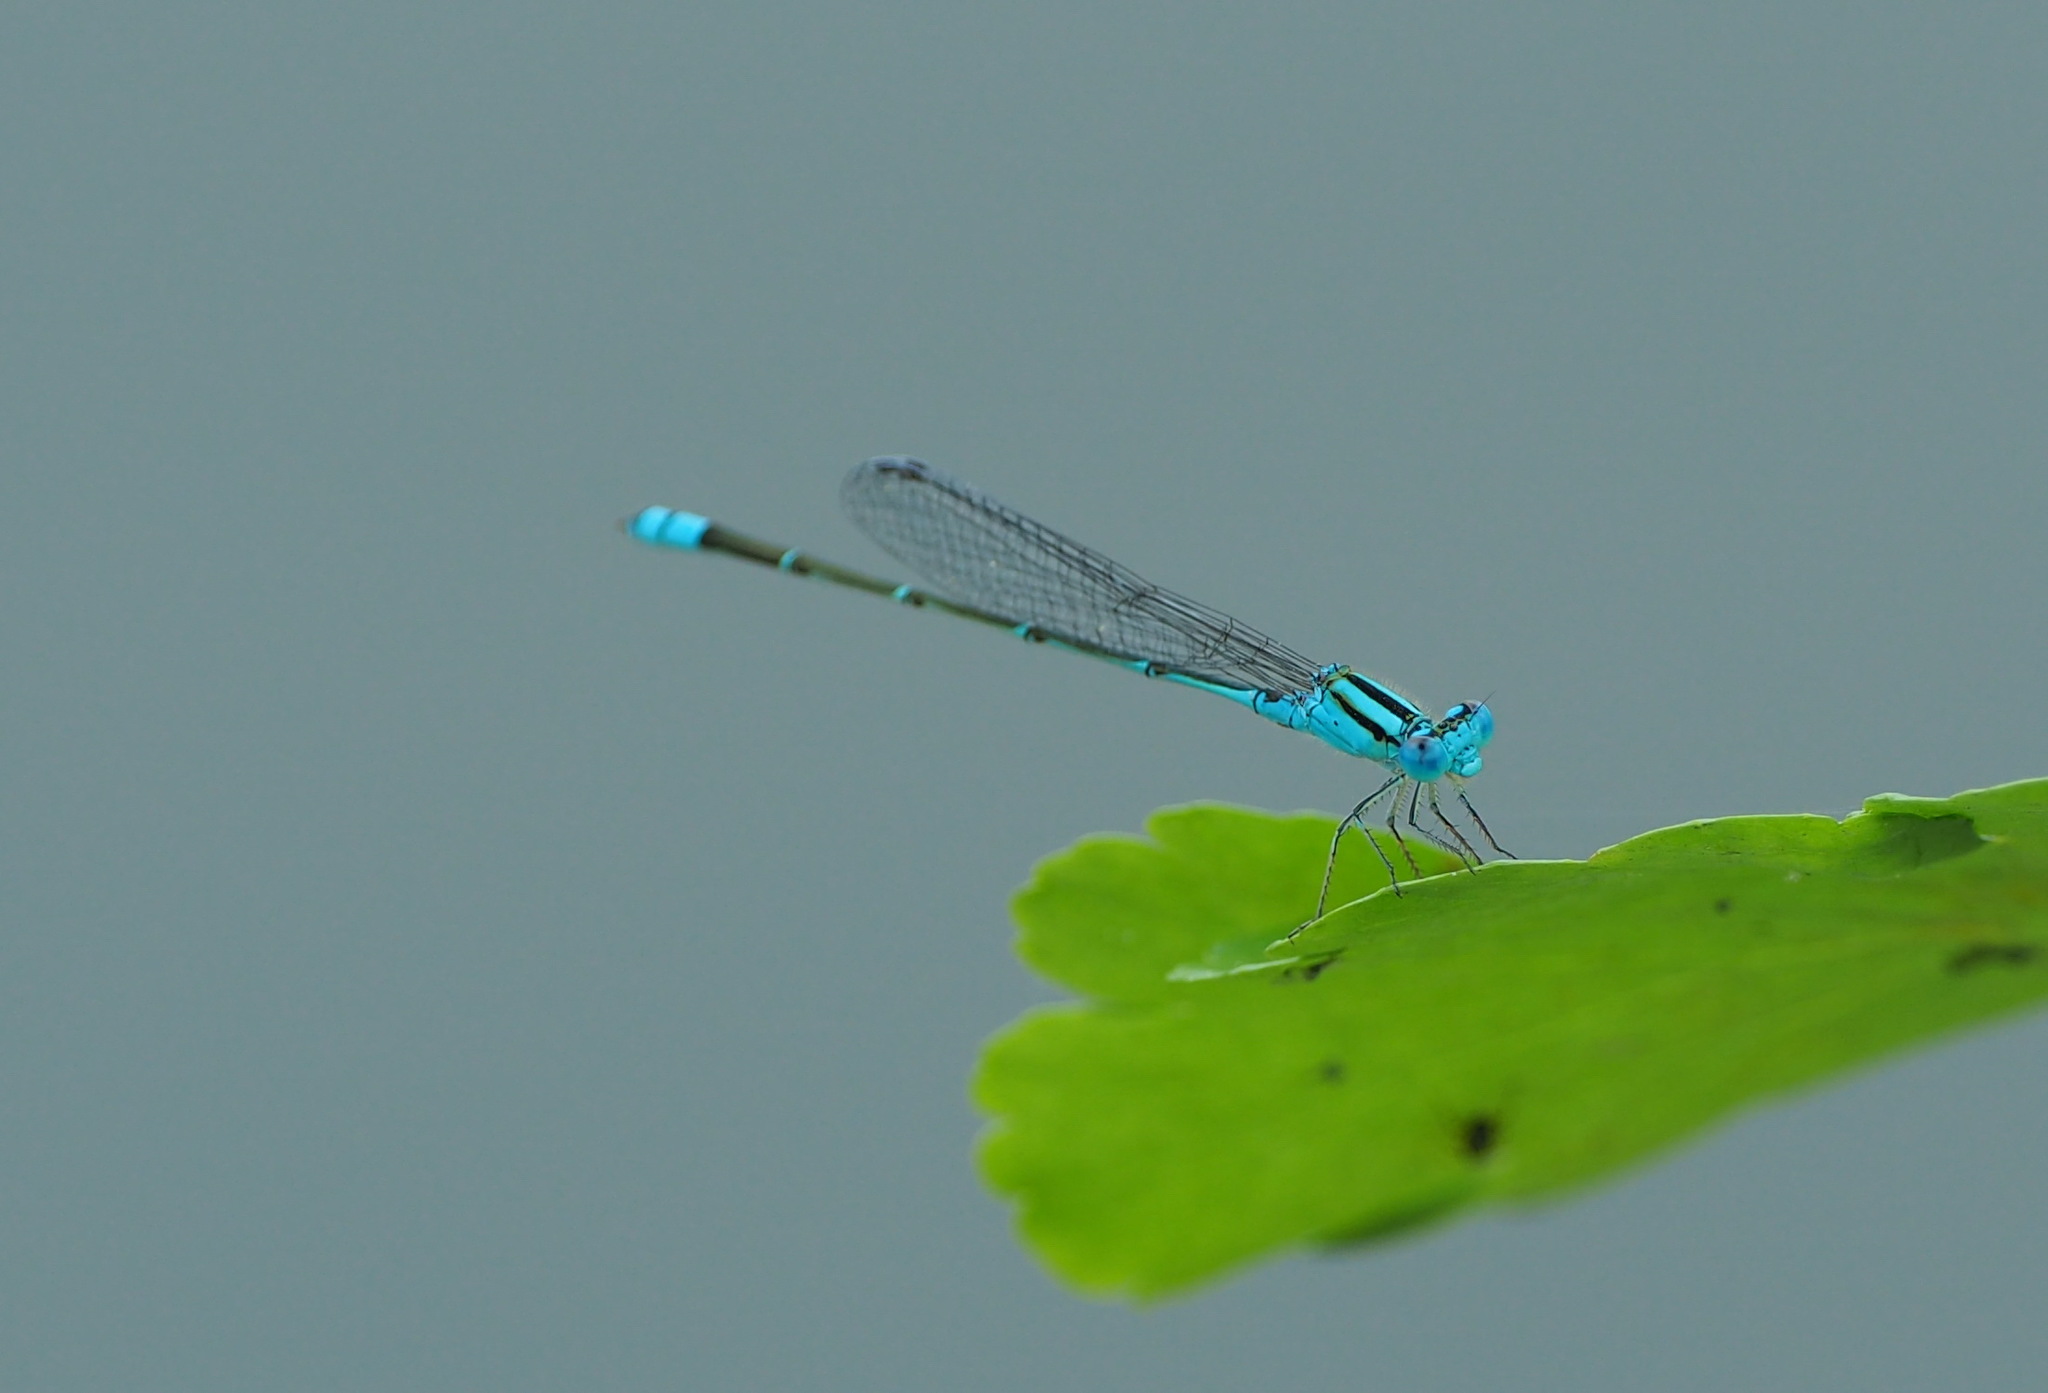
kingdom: Animalia
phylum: Arthropoda
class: Insecta
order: Odonata
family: Coenagrionidae
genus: Pseudagrion
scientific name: Pseudagrion microcephalum
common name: Blue riverdamsel
